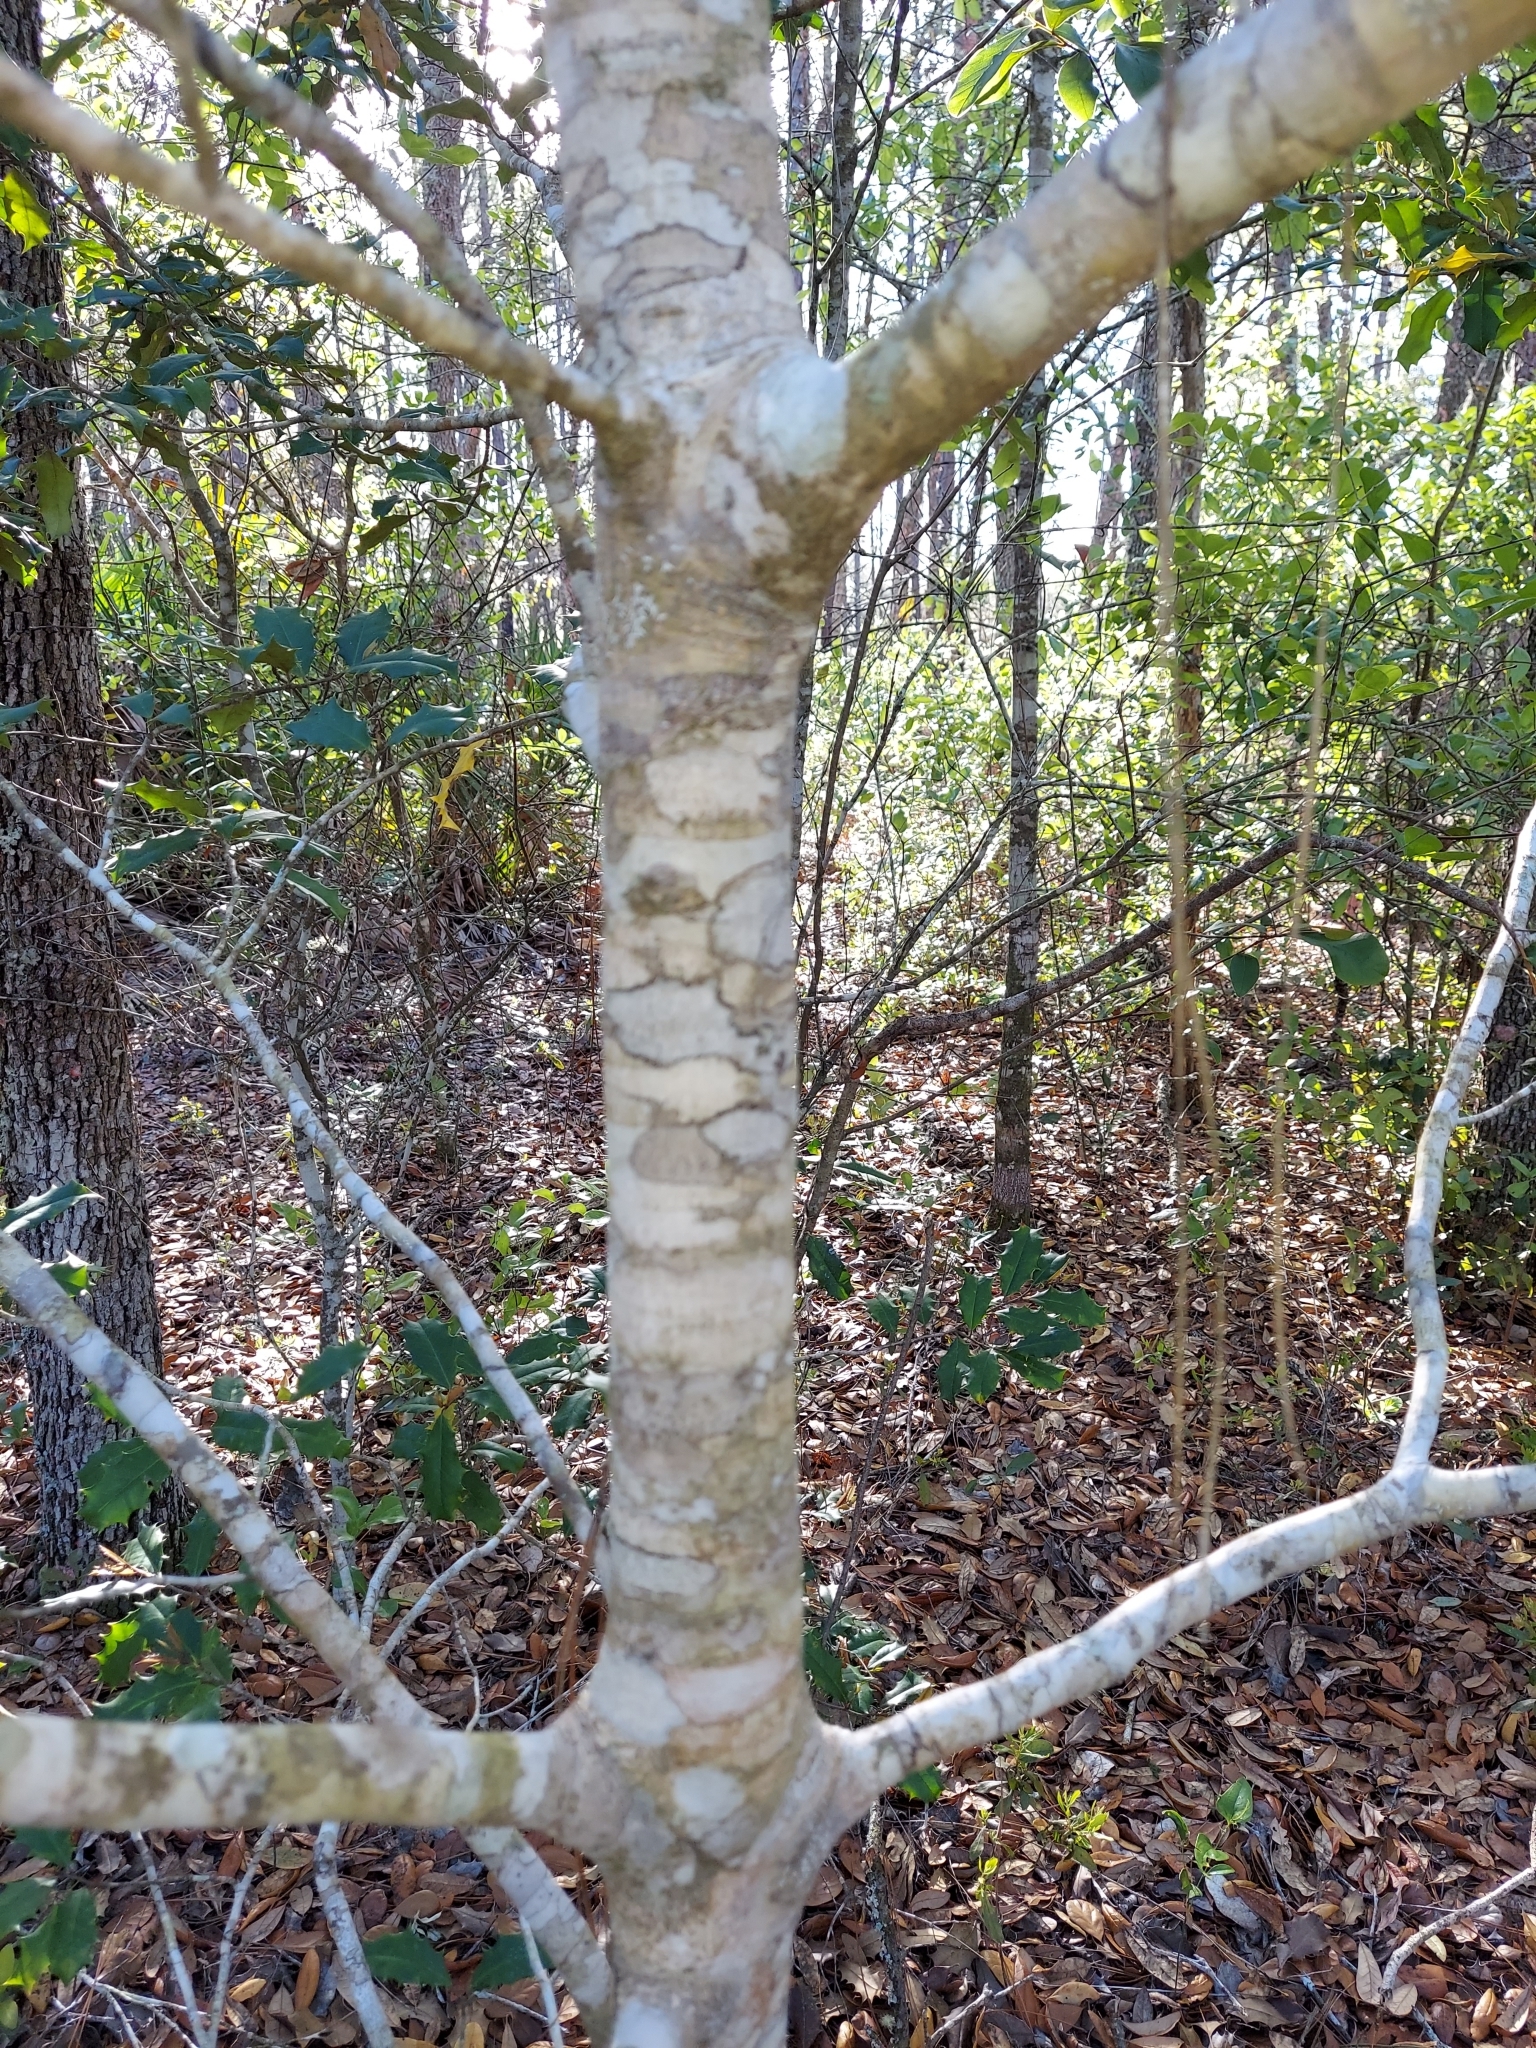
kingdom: Plantae
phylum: Tracheophyta
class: Magnoliopsida
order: Aquifoliales
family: Aquifoliaceae
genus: Ilex
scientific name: Ilex opaca
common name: American holly
